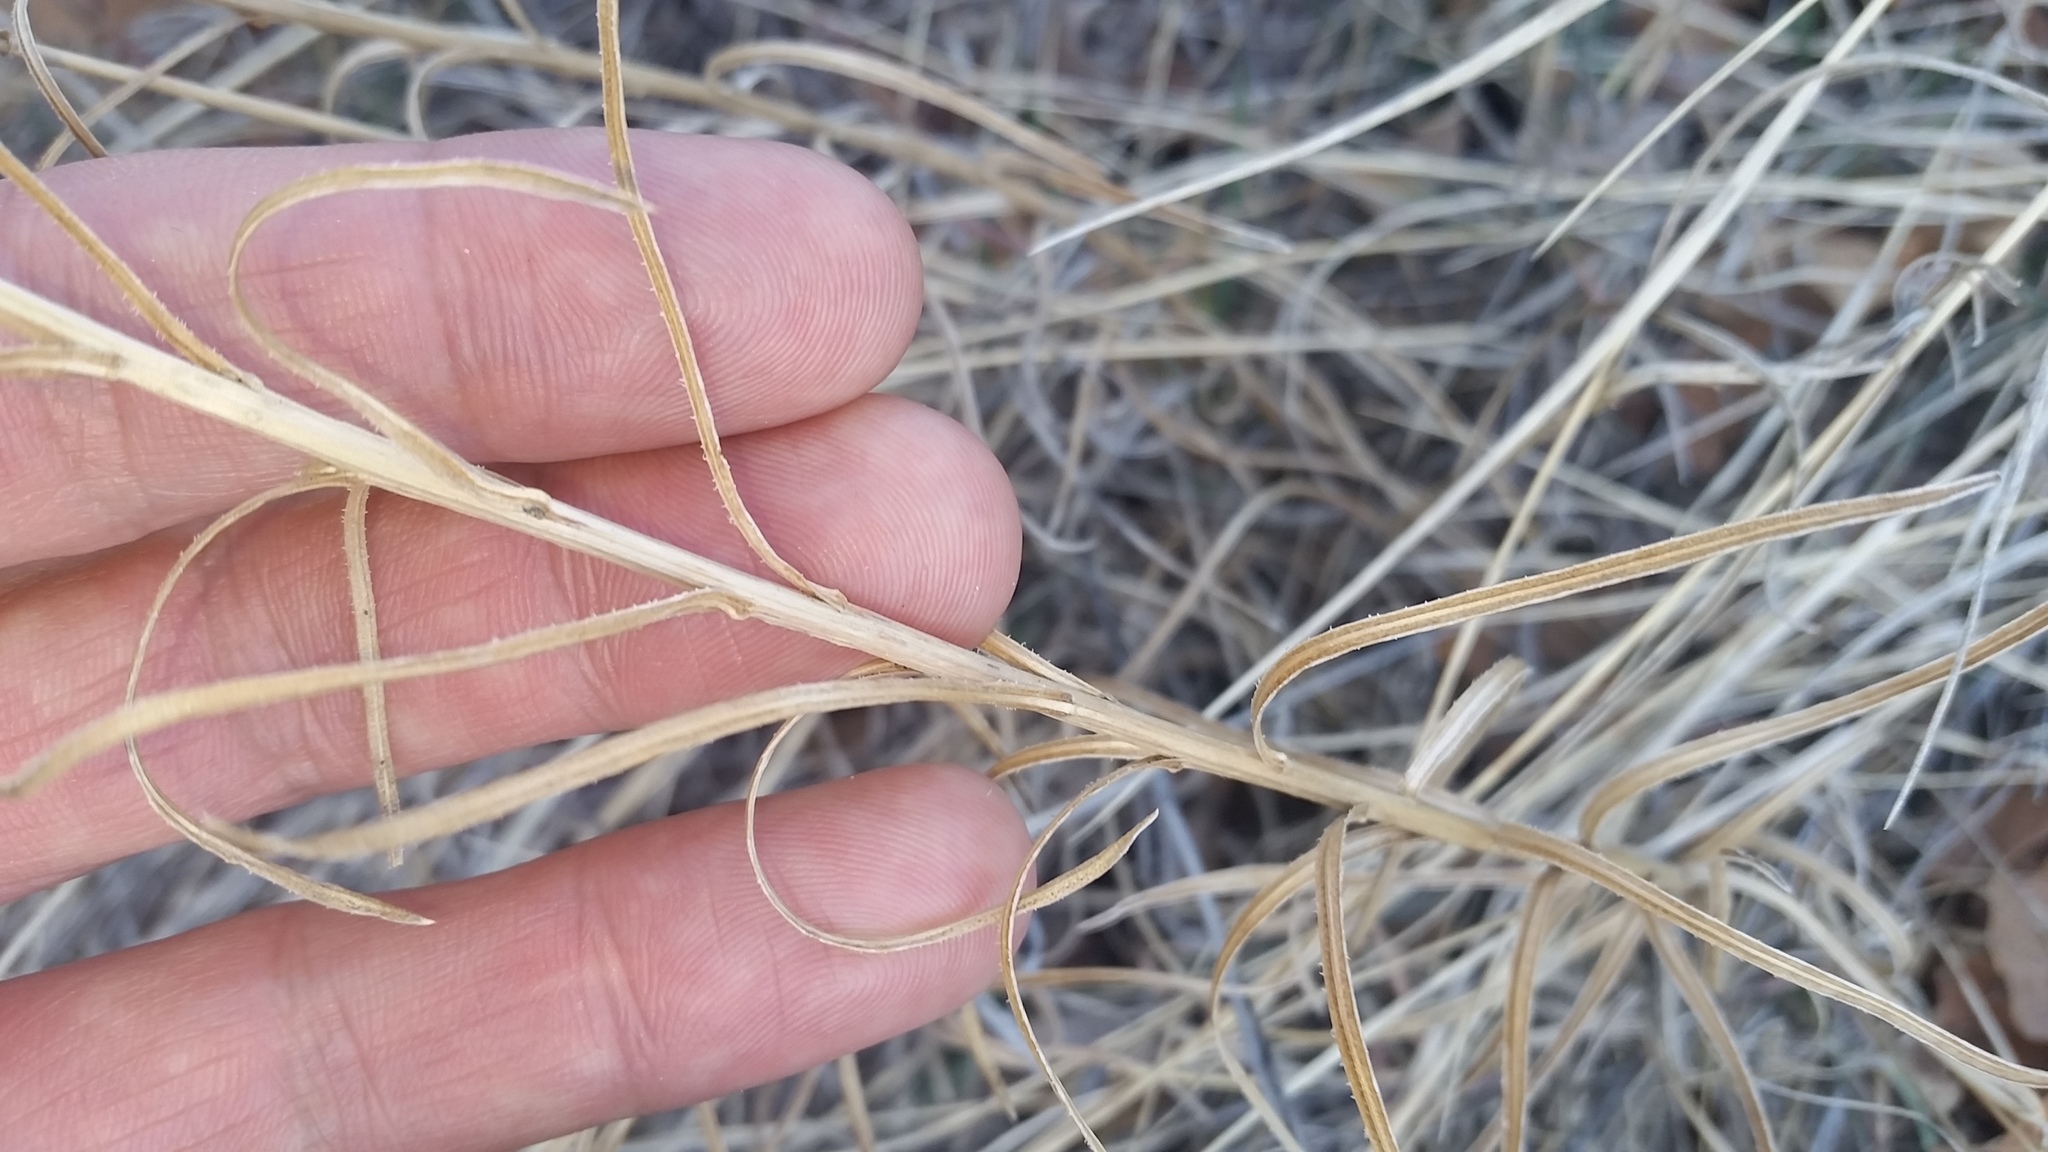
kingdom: Plantae
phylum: Tracheophyta
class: Magnoliopsida
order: Asterales
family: Asteraceae
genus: Liatris
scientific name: Liatris punctata
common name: Dotted gayfeather
